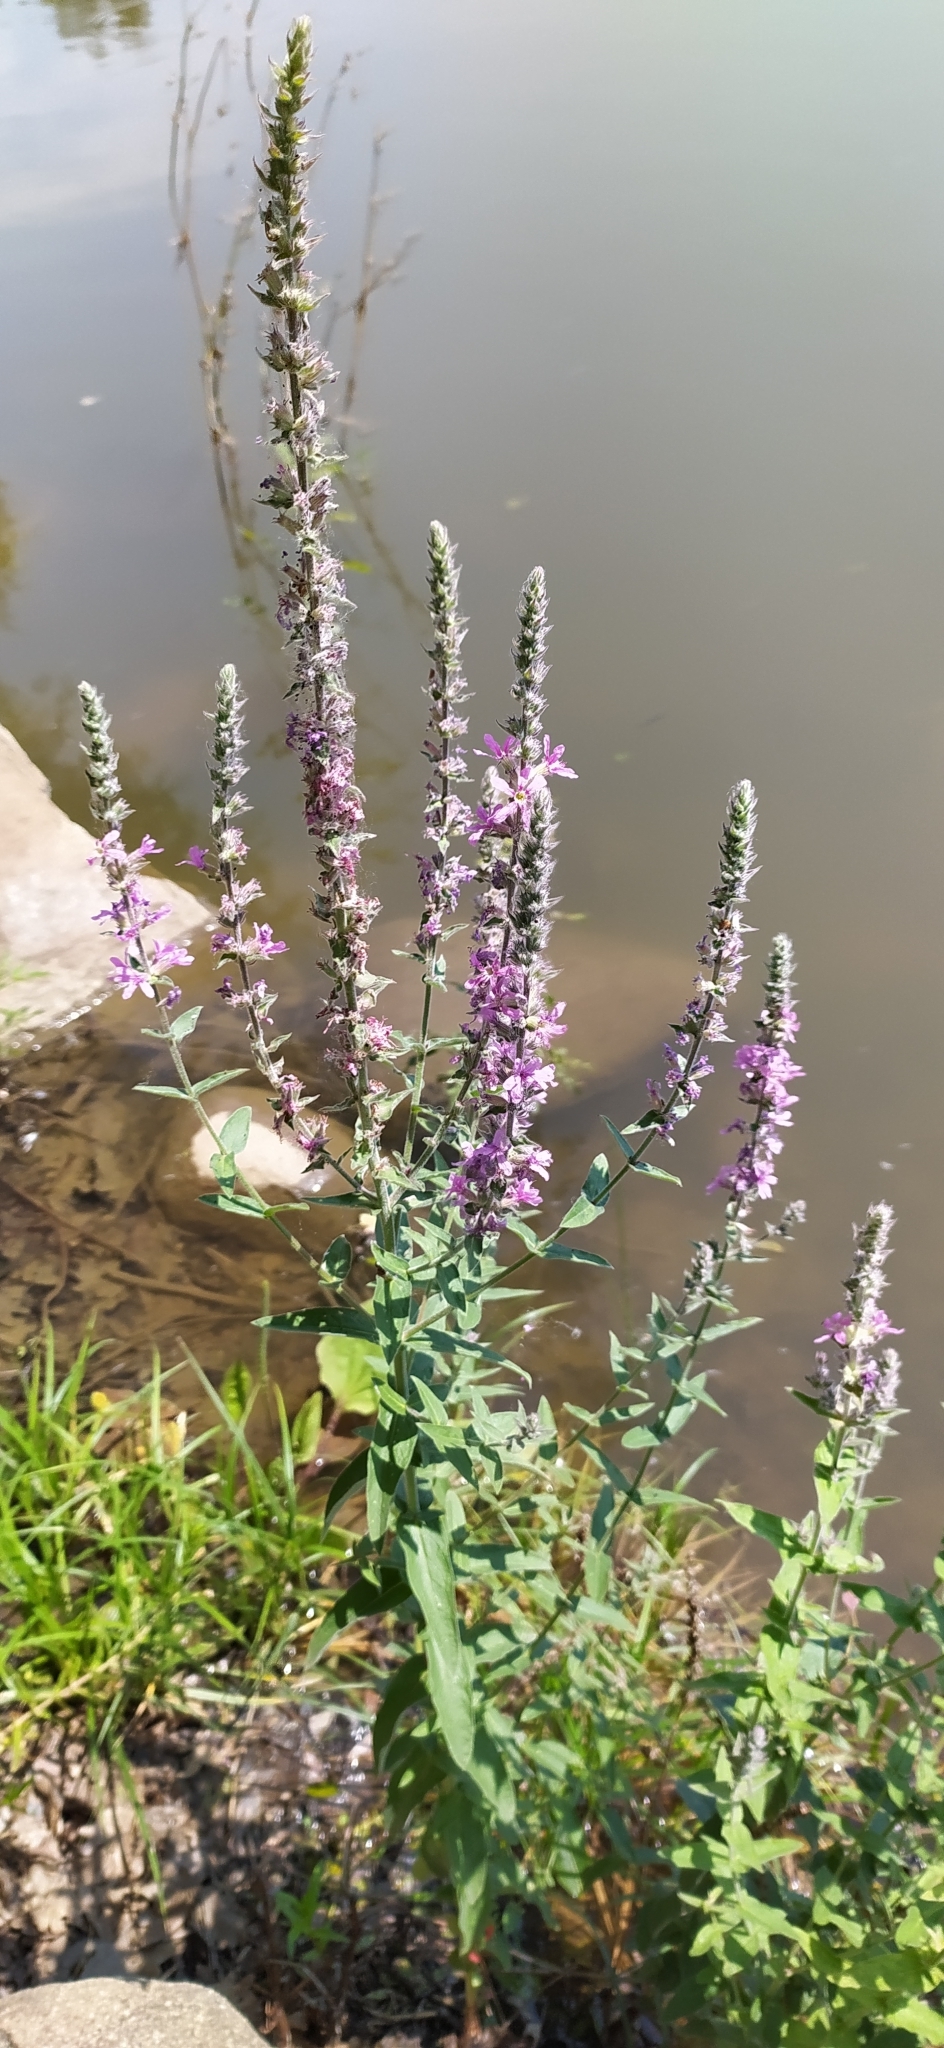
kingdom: Plantae
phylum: Tracheophyta
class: Magnoliopsida
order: Myrtales
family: Lythraceae
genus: Lythrum
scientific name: Lythrum salicaria
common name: Purple loosestrife
